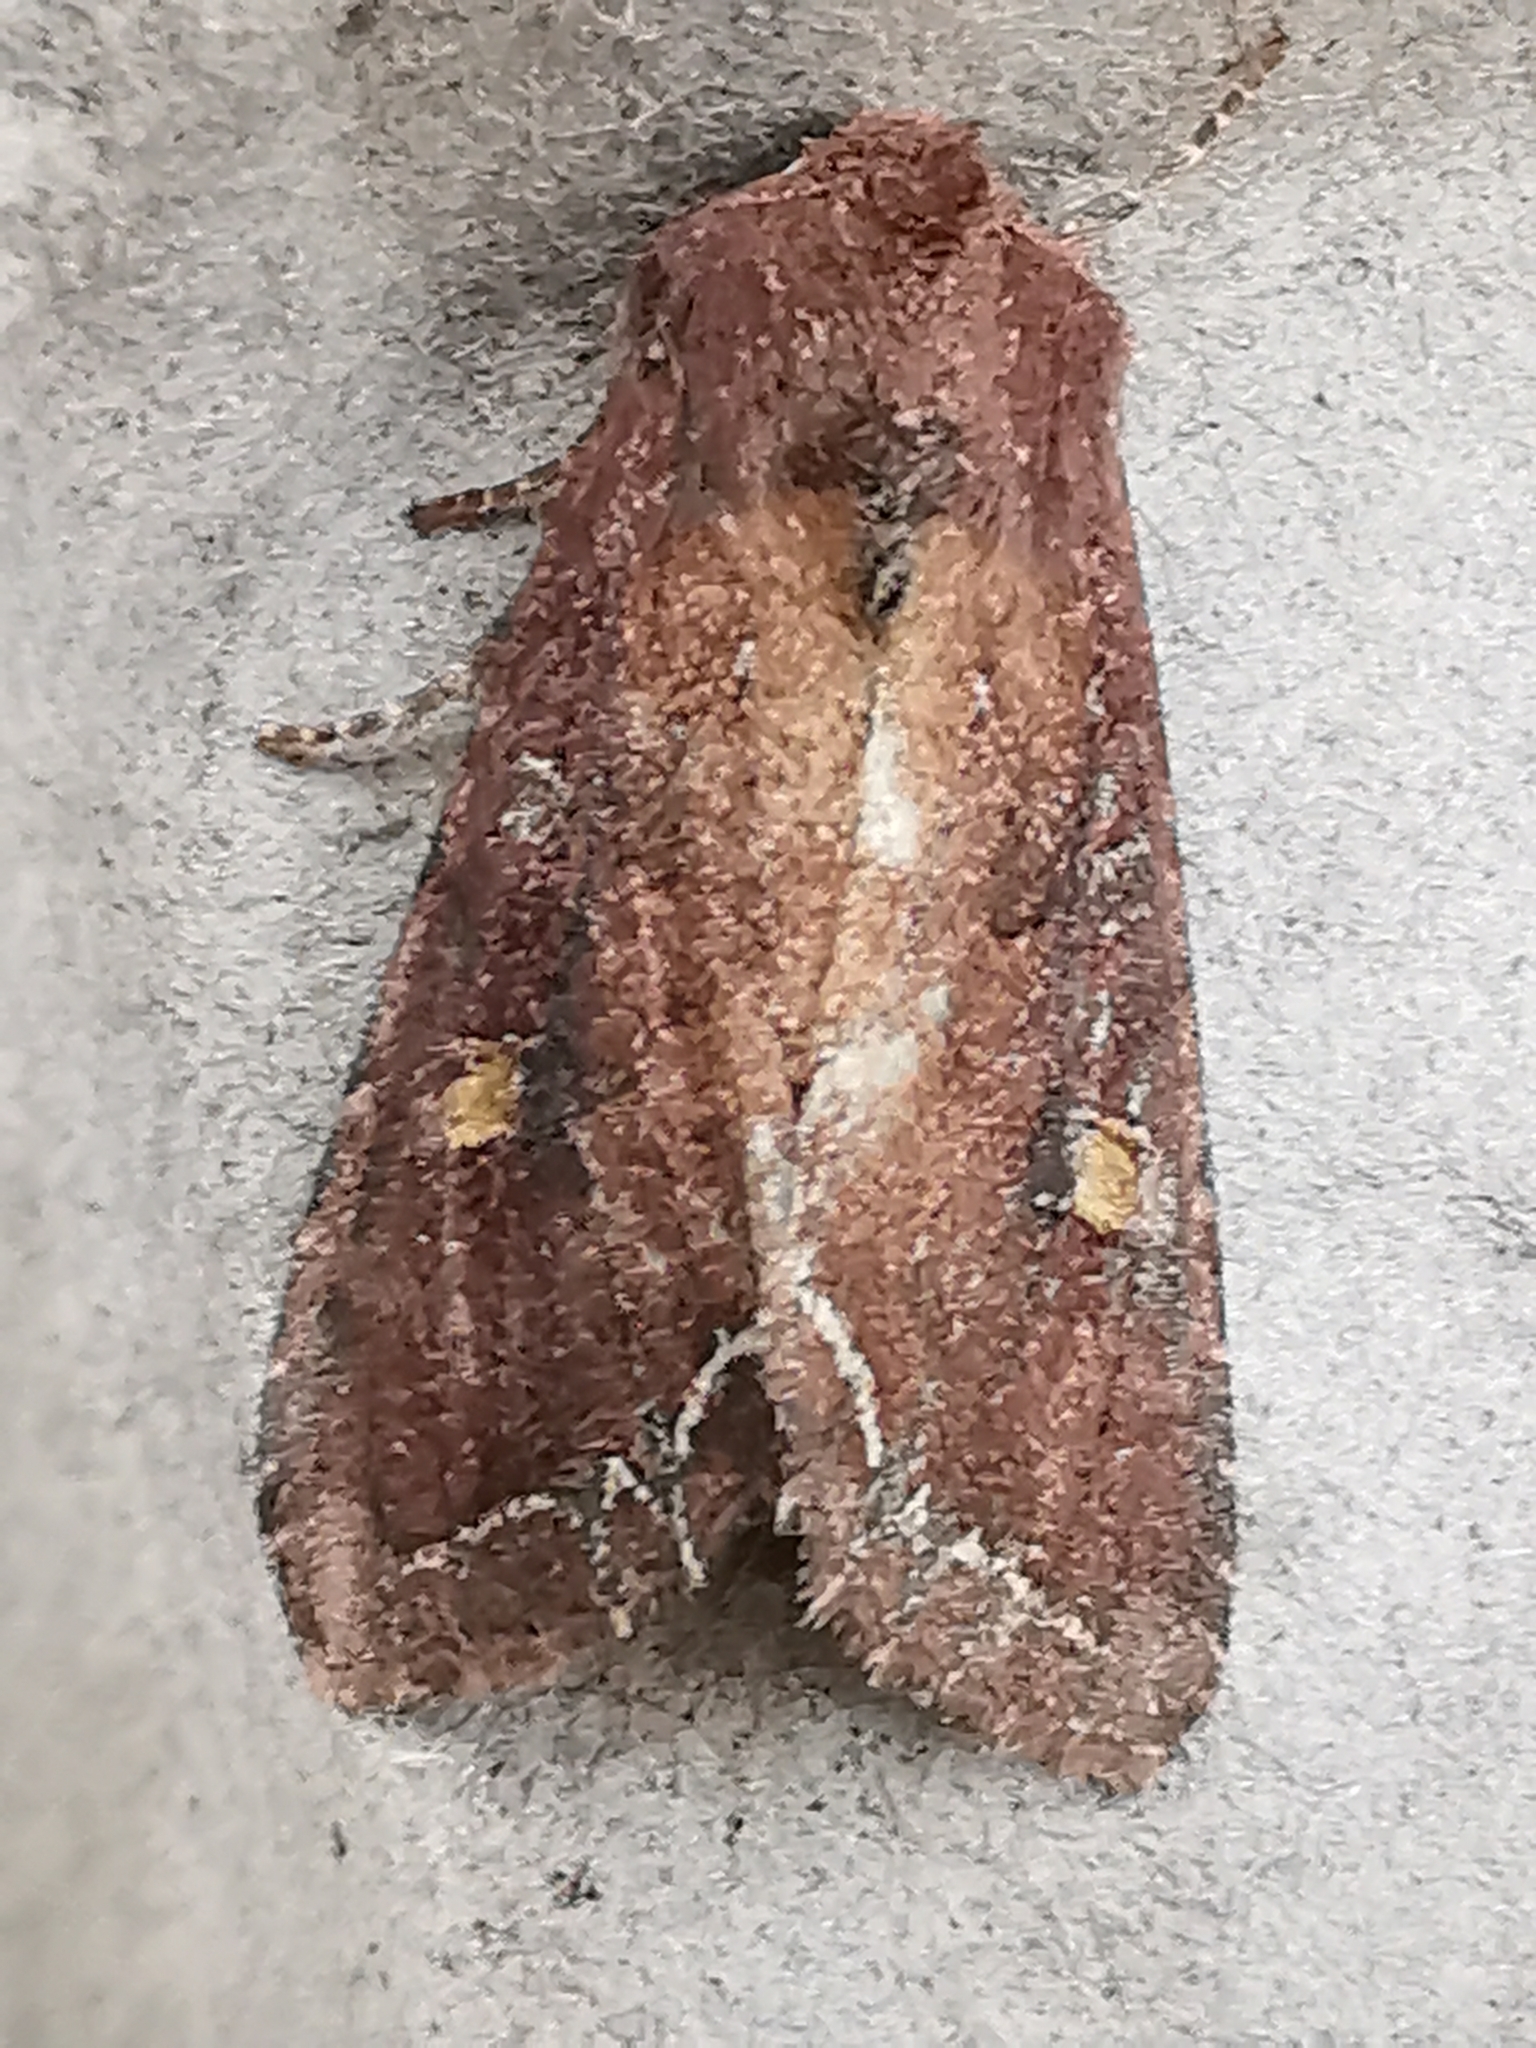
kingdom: Animalia
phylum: Arthropoda
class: Insecta
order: Lepidoptera
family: Noctuidae
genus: Lacanobia
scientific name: Lacanobia oleracea
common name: Bright-line brown-eye
